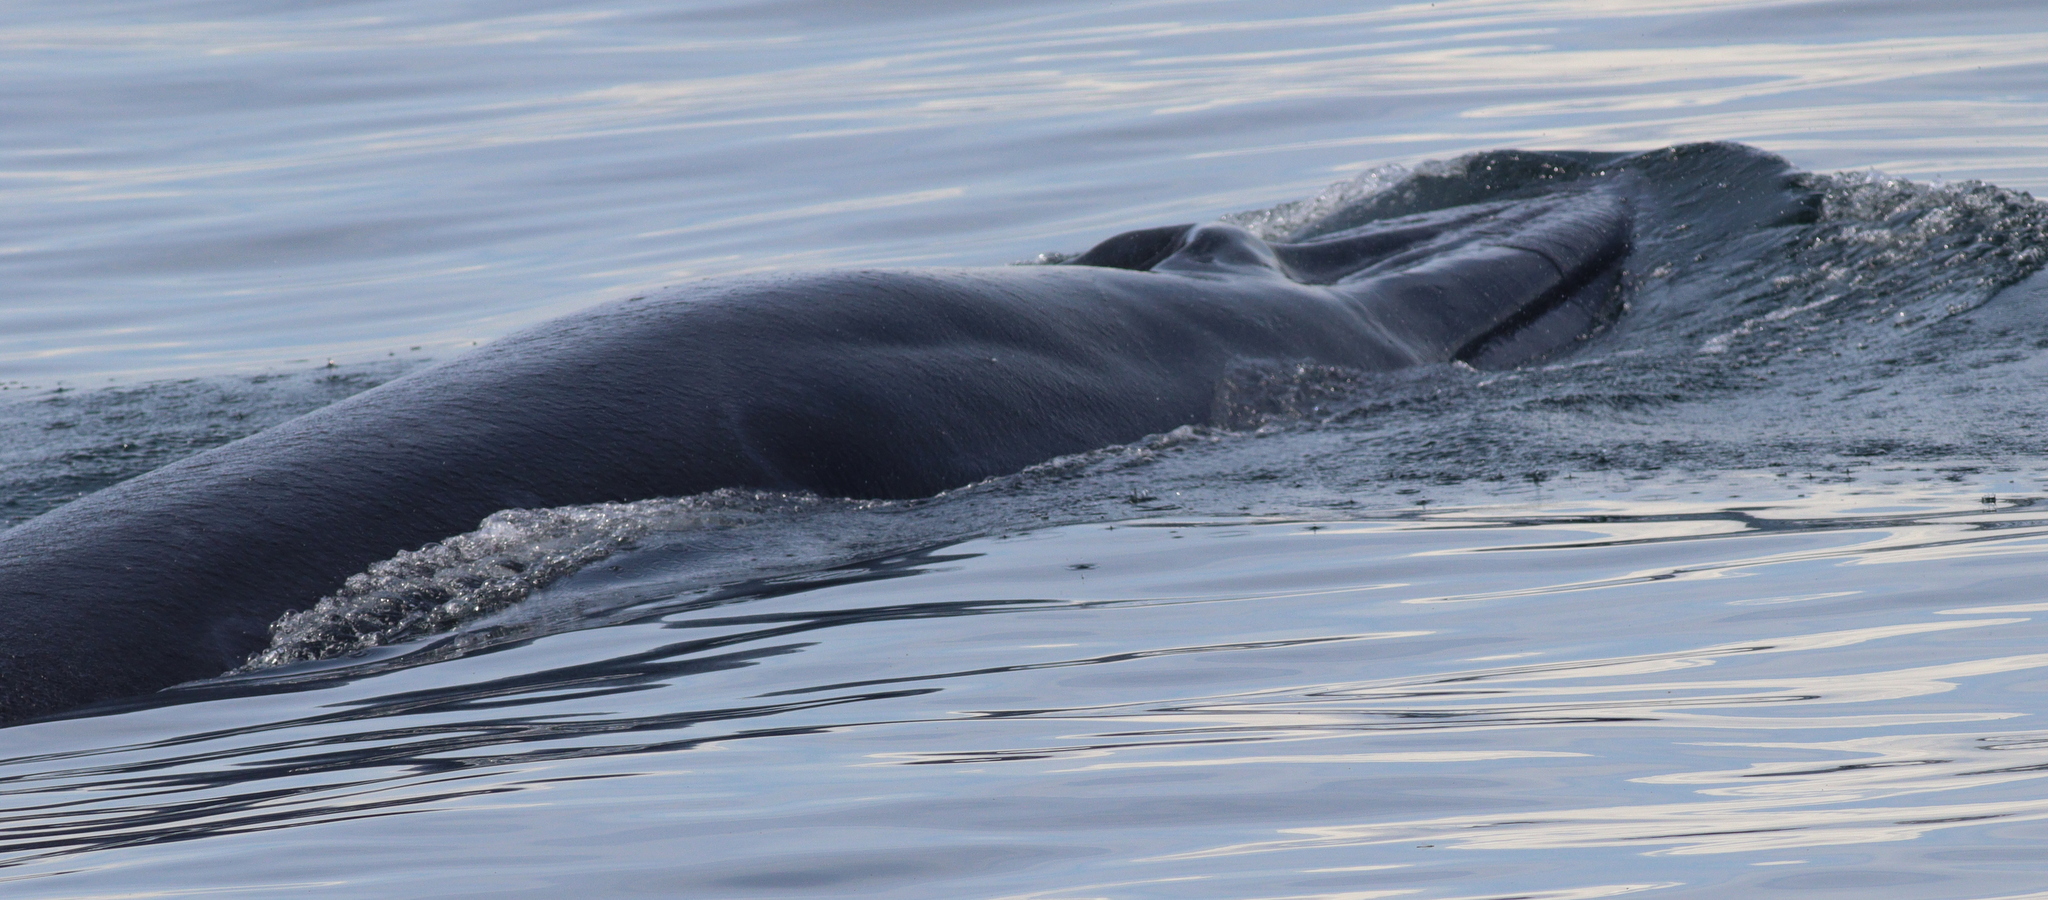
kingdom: Animalia
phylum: Chordata
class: Mammalia
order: Cetacea
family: Balaenopteridae
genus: Balaenoptera
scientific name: Balaenoptera edeni
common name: Bryde's whale
